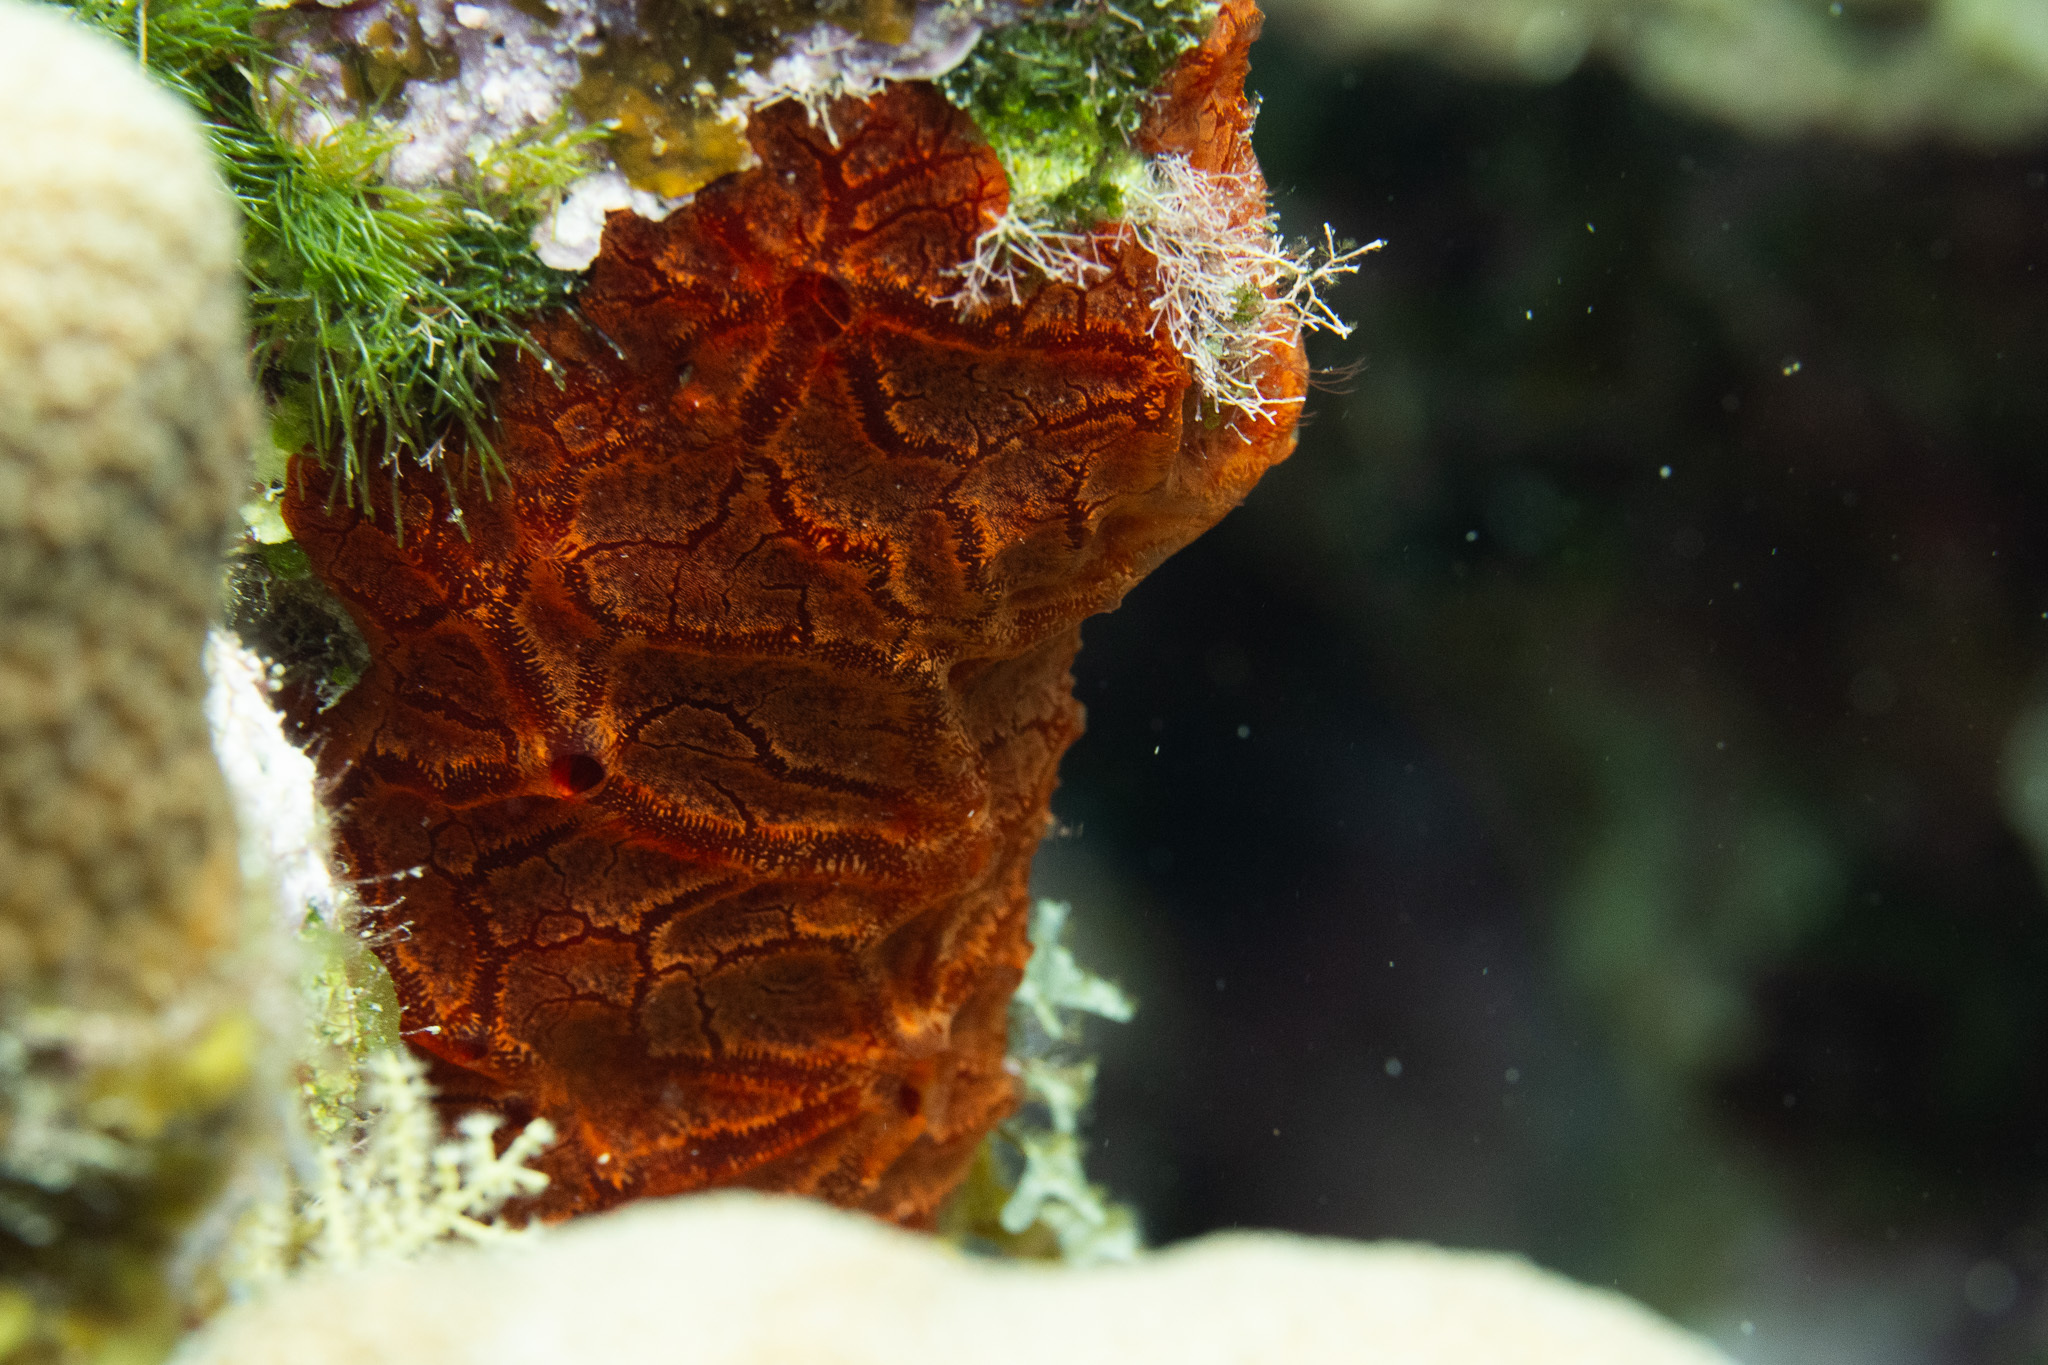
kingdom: Animalia
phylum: Porifera
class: Demospongiae
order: Poecilosclerida
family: Crambeidae
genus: Monanchora
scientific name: Monanchora arbuscula
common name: Red-white marbled sponge
